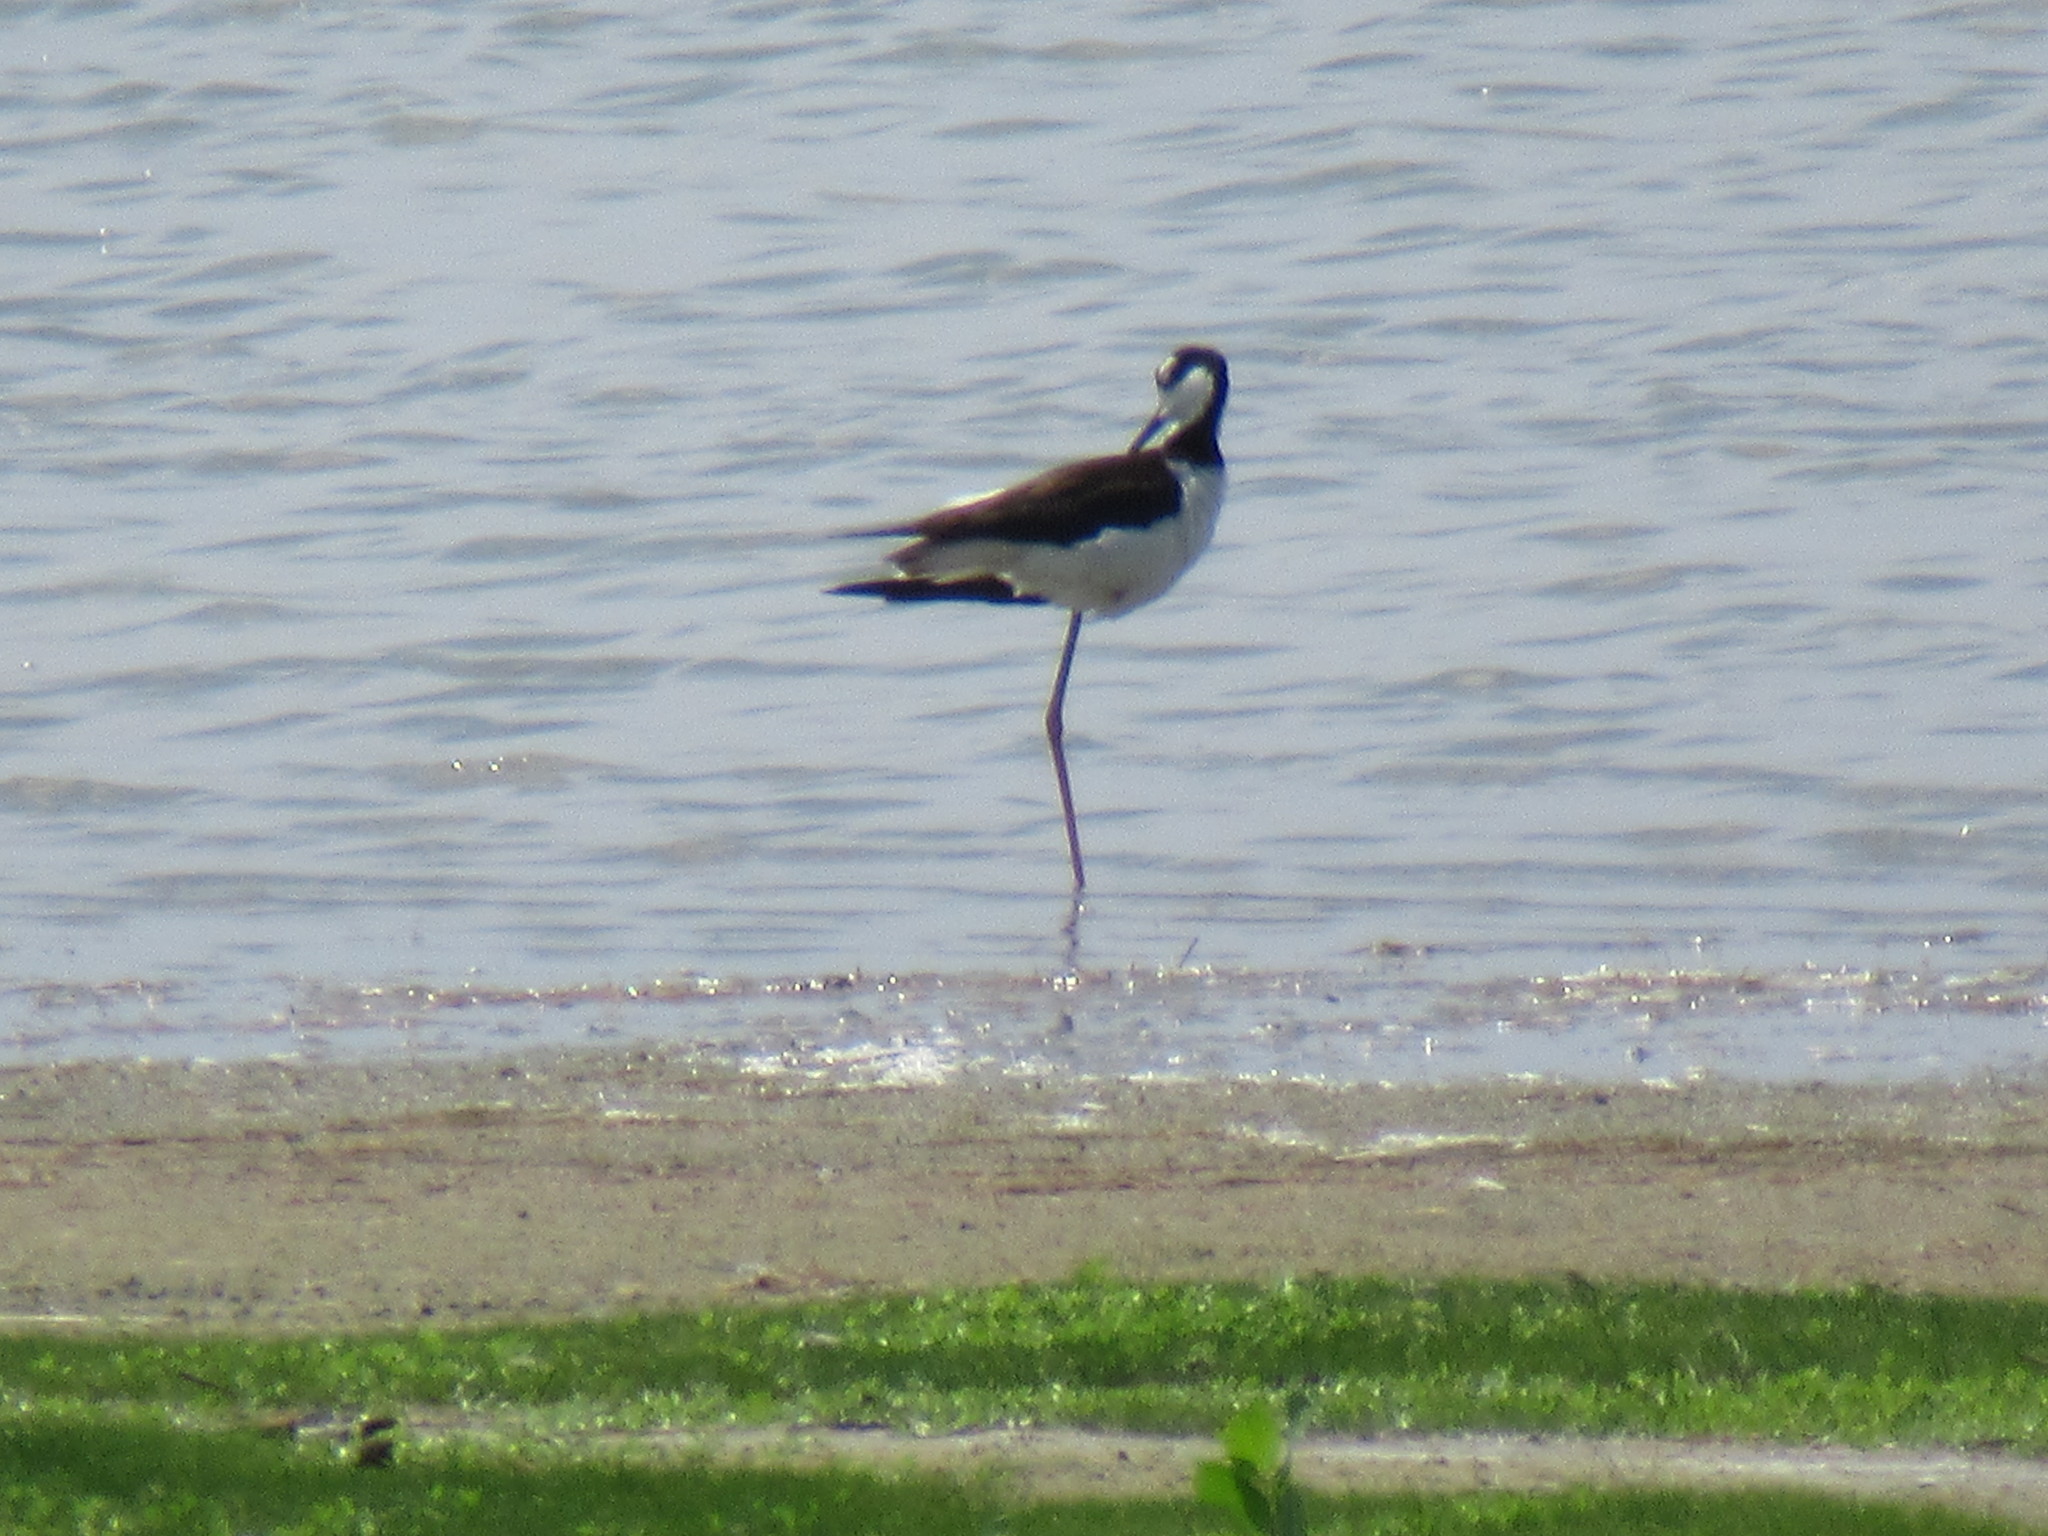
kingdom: Animalia
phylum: Chordata
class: Aves
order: Charadriiformes
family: Recurvirostridae
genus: Himantopus
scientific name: Himantopus mexicanus
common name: Black-necked stilt
